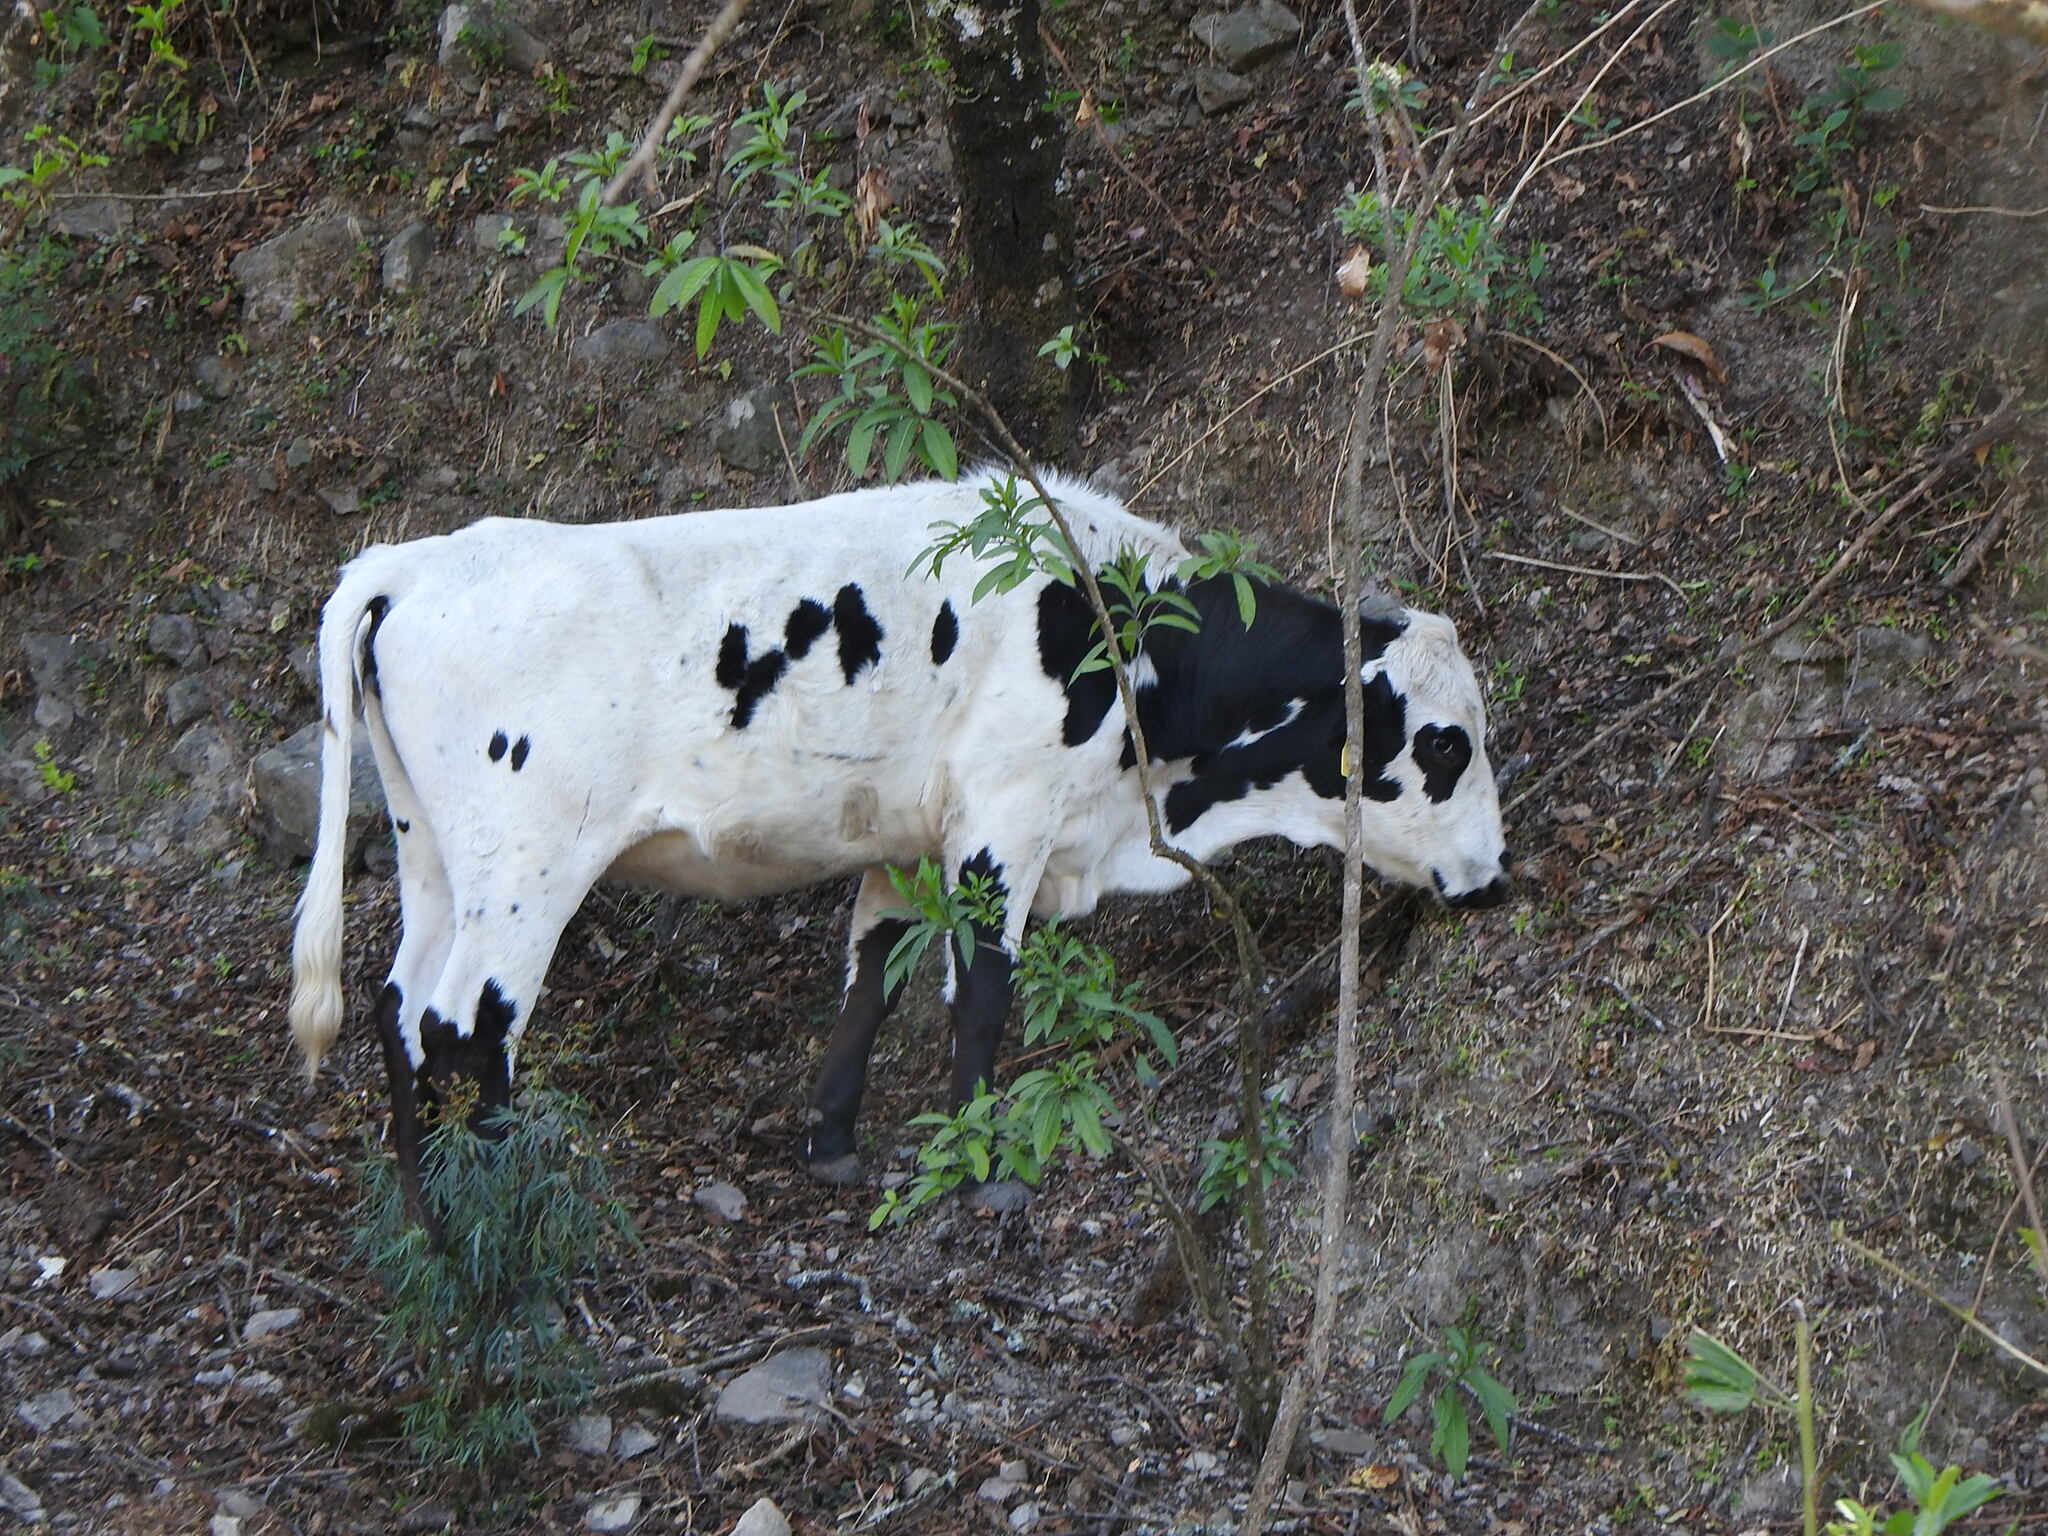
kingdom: Animalia
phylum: Chordata
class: Mammalia
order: Artiodactyla
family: Bovidae
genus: Bos
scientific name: Bos taurus
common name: Domesticated cattle
